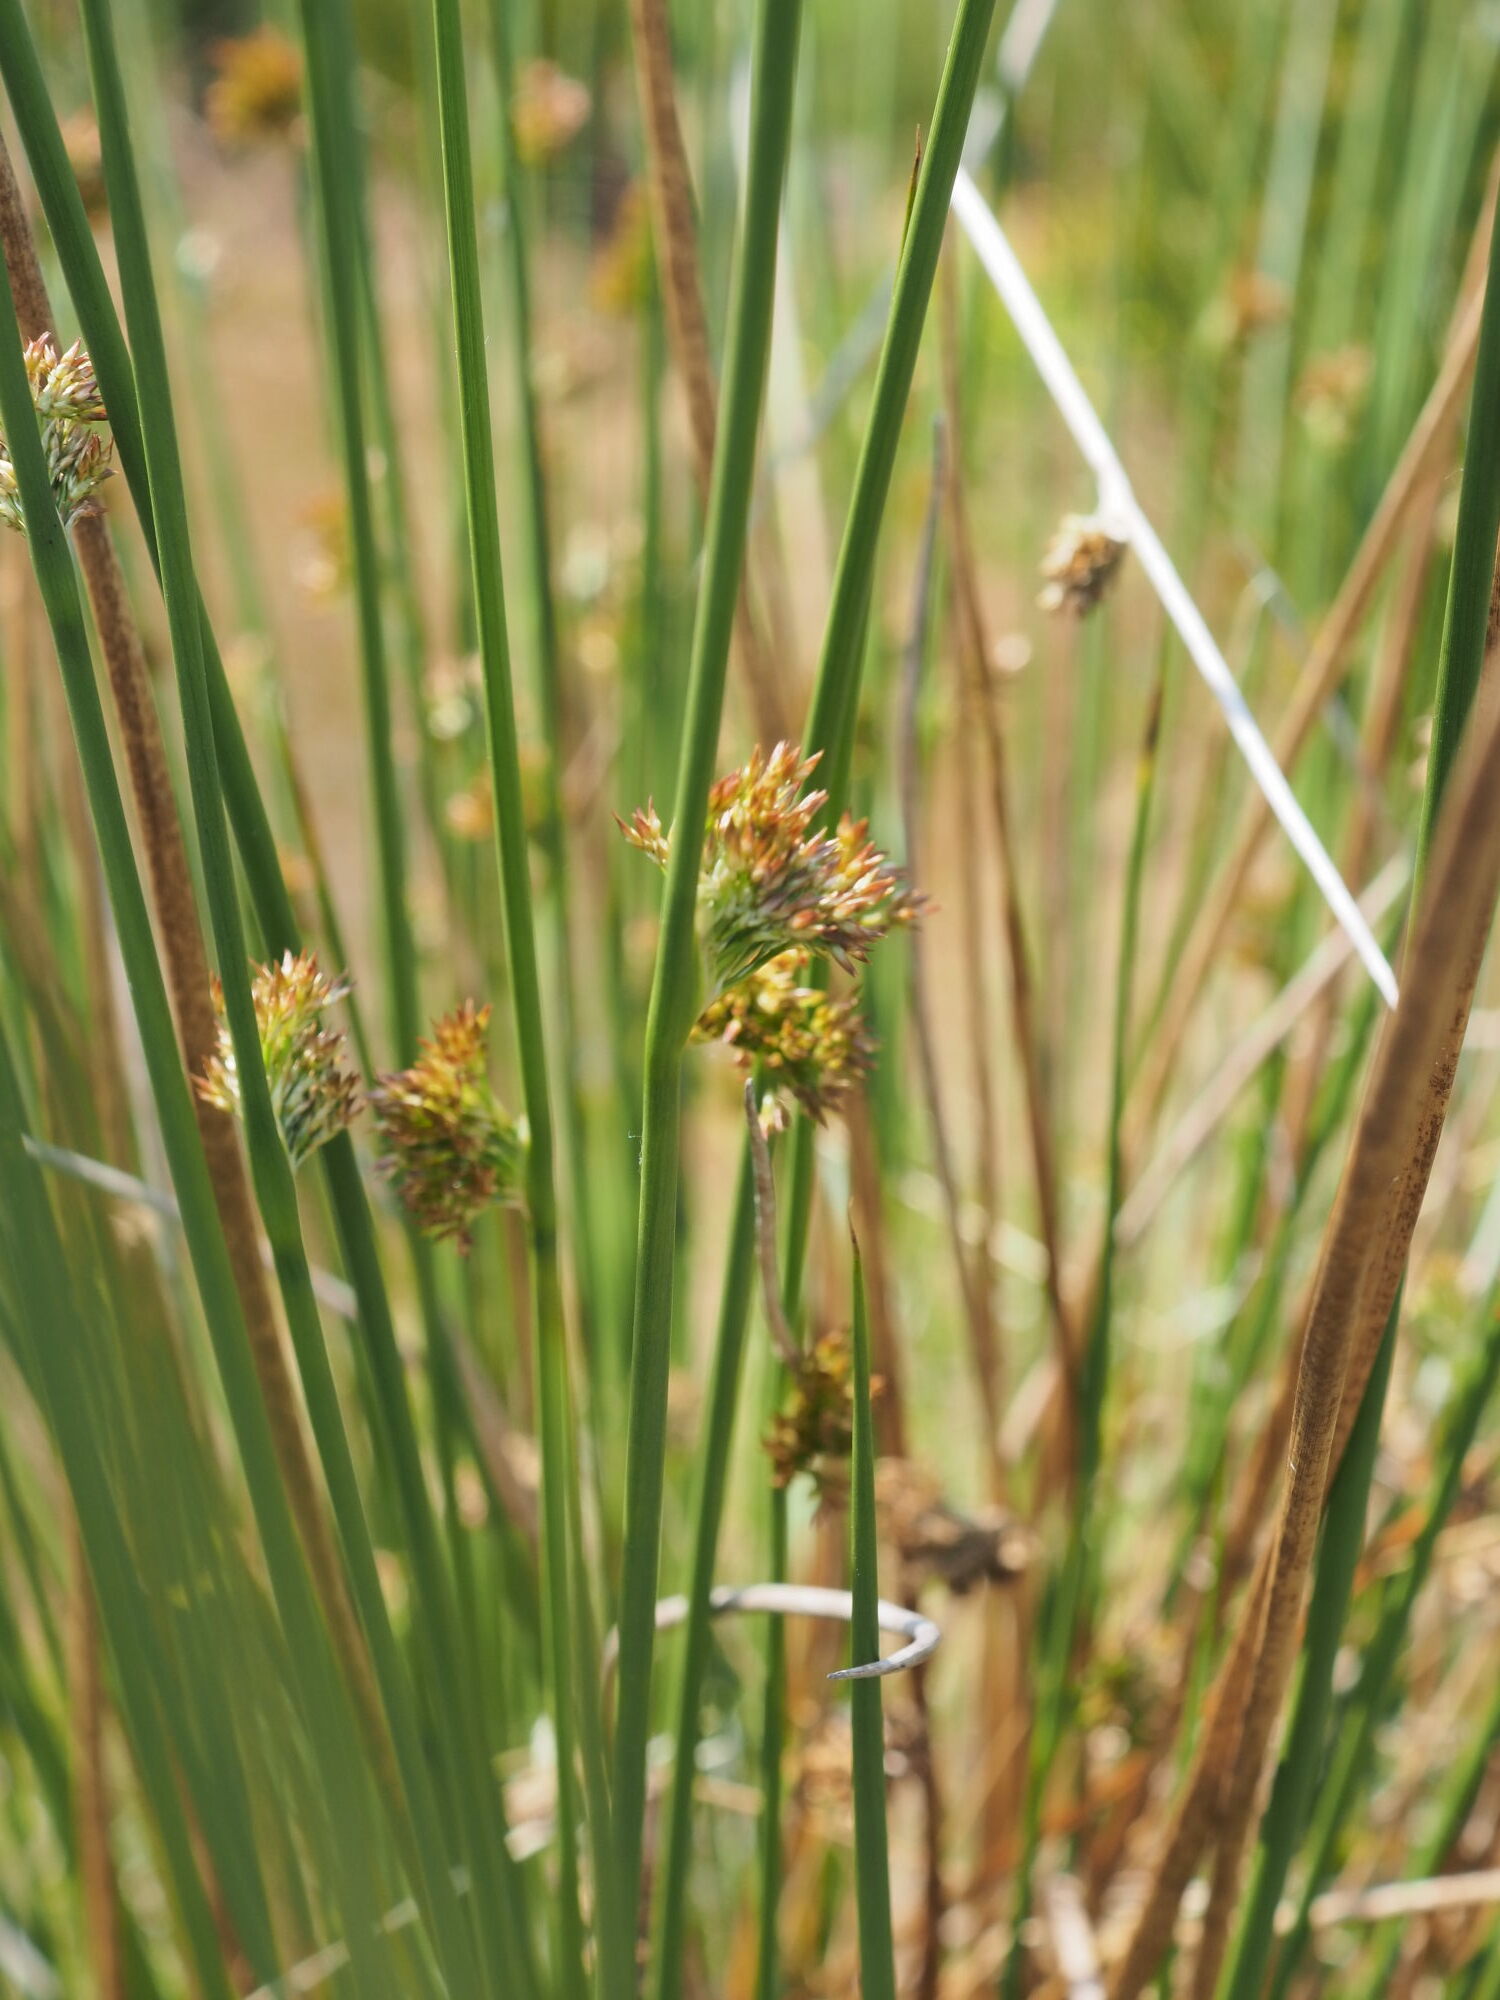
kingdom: Plantae
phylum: Tracheophyta
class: Liliopsida
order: Poales
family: Juncaceae
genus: Juncus
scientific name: Juncus effusus
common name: Soft rush
